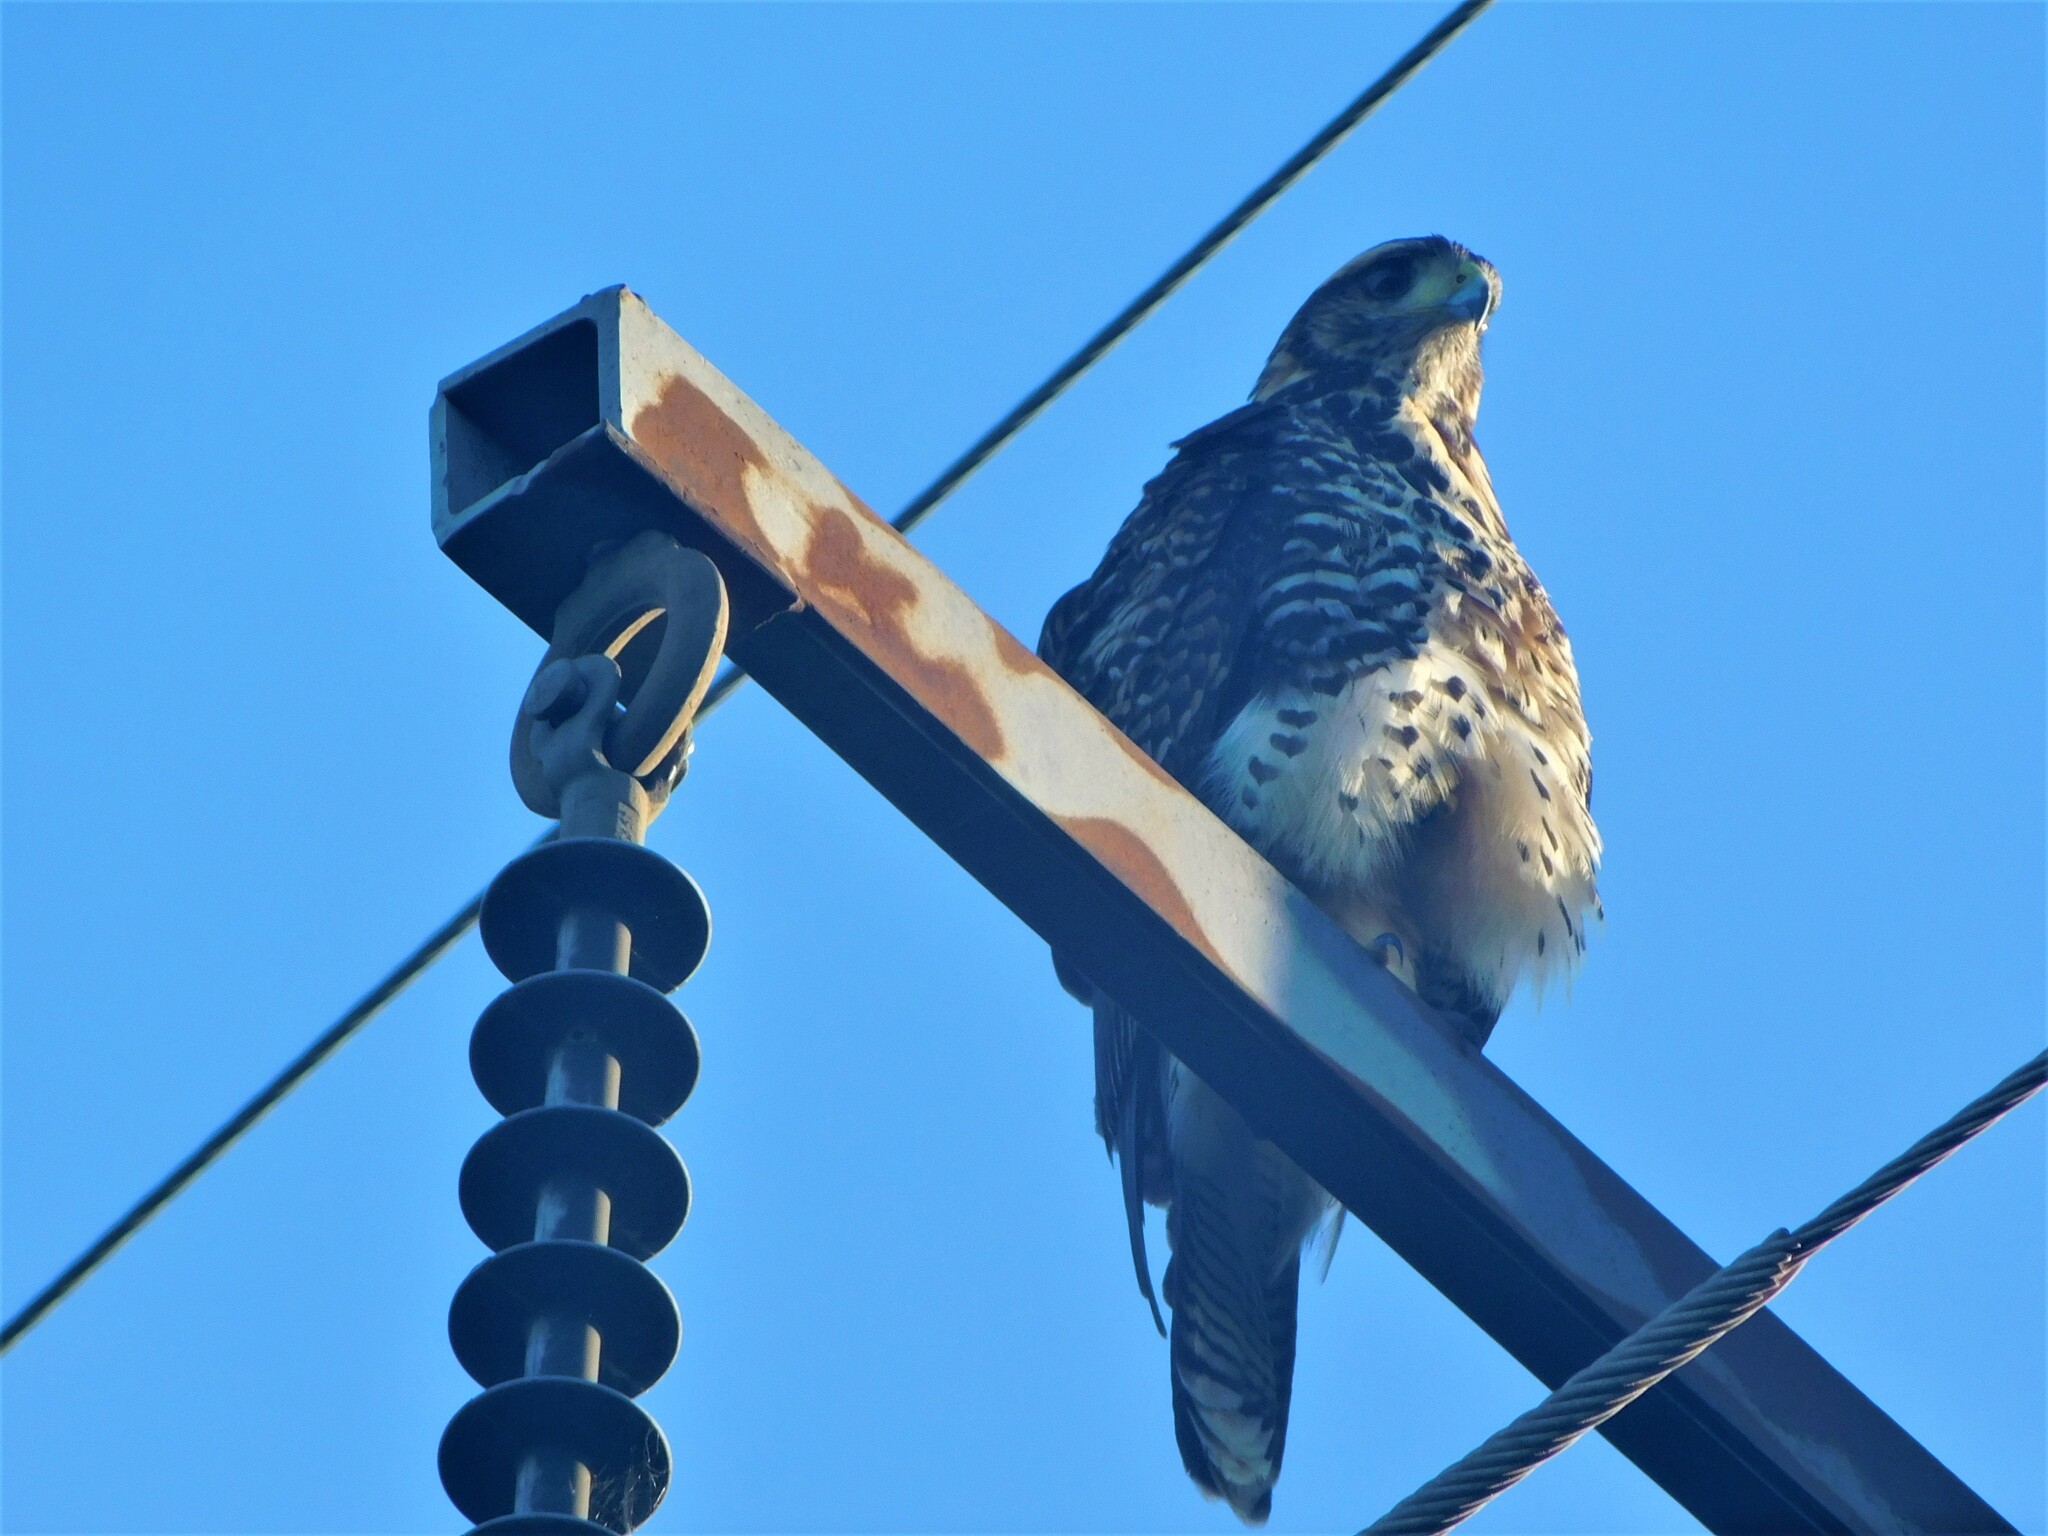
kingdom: Animalia
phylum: Chordata
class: Aves
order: Accipitriformes
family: Accipitridae
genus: Parabuteo
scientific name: Parabuteo unicinctus
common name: Harris's hawk
